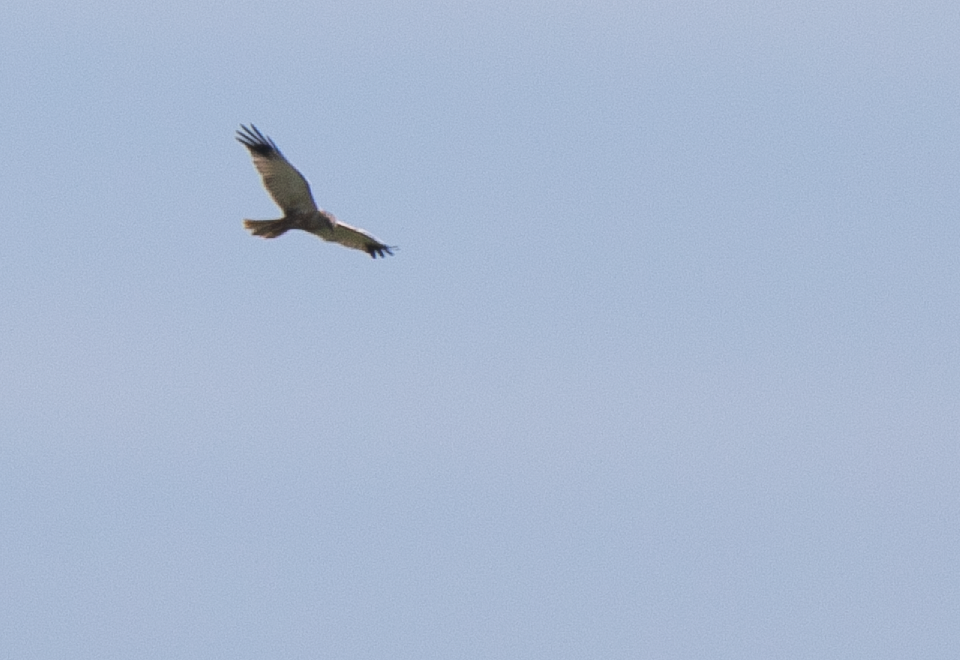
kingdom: Animalia
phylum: Chordata
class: Aves
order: Accipitriformes
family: Accipitridae
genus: Circus
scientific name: Circus aeruginosus
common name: Western marsh harrier
